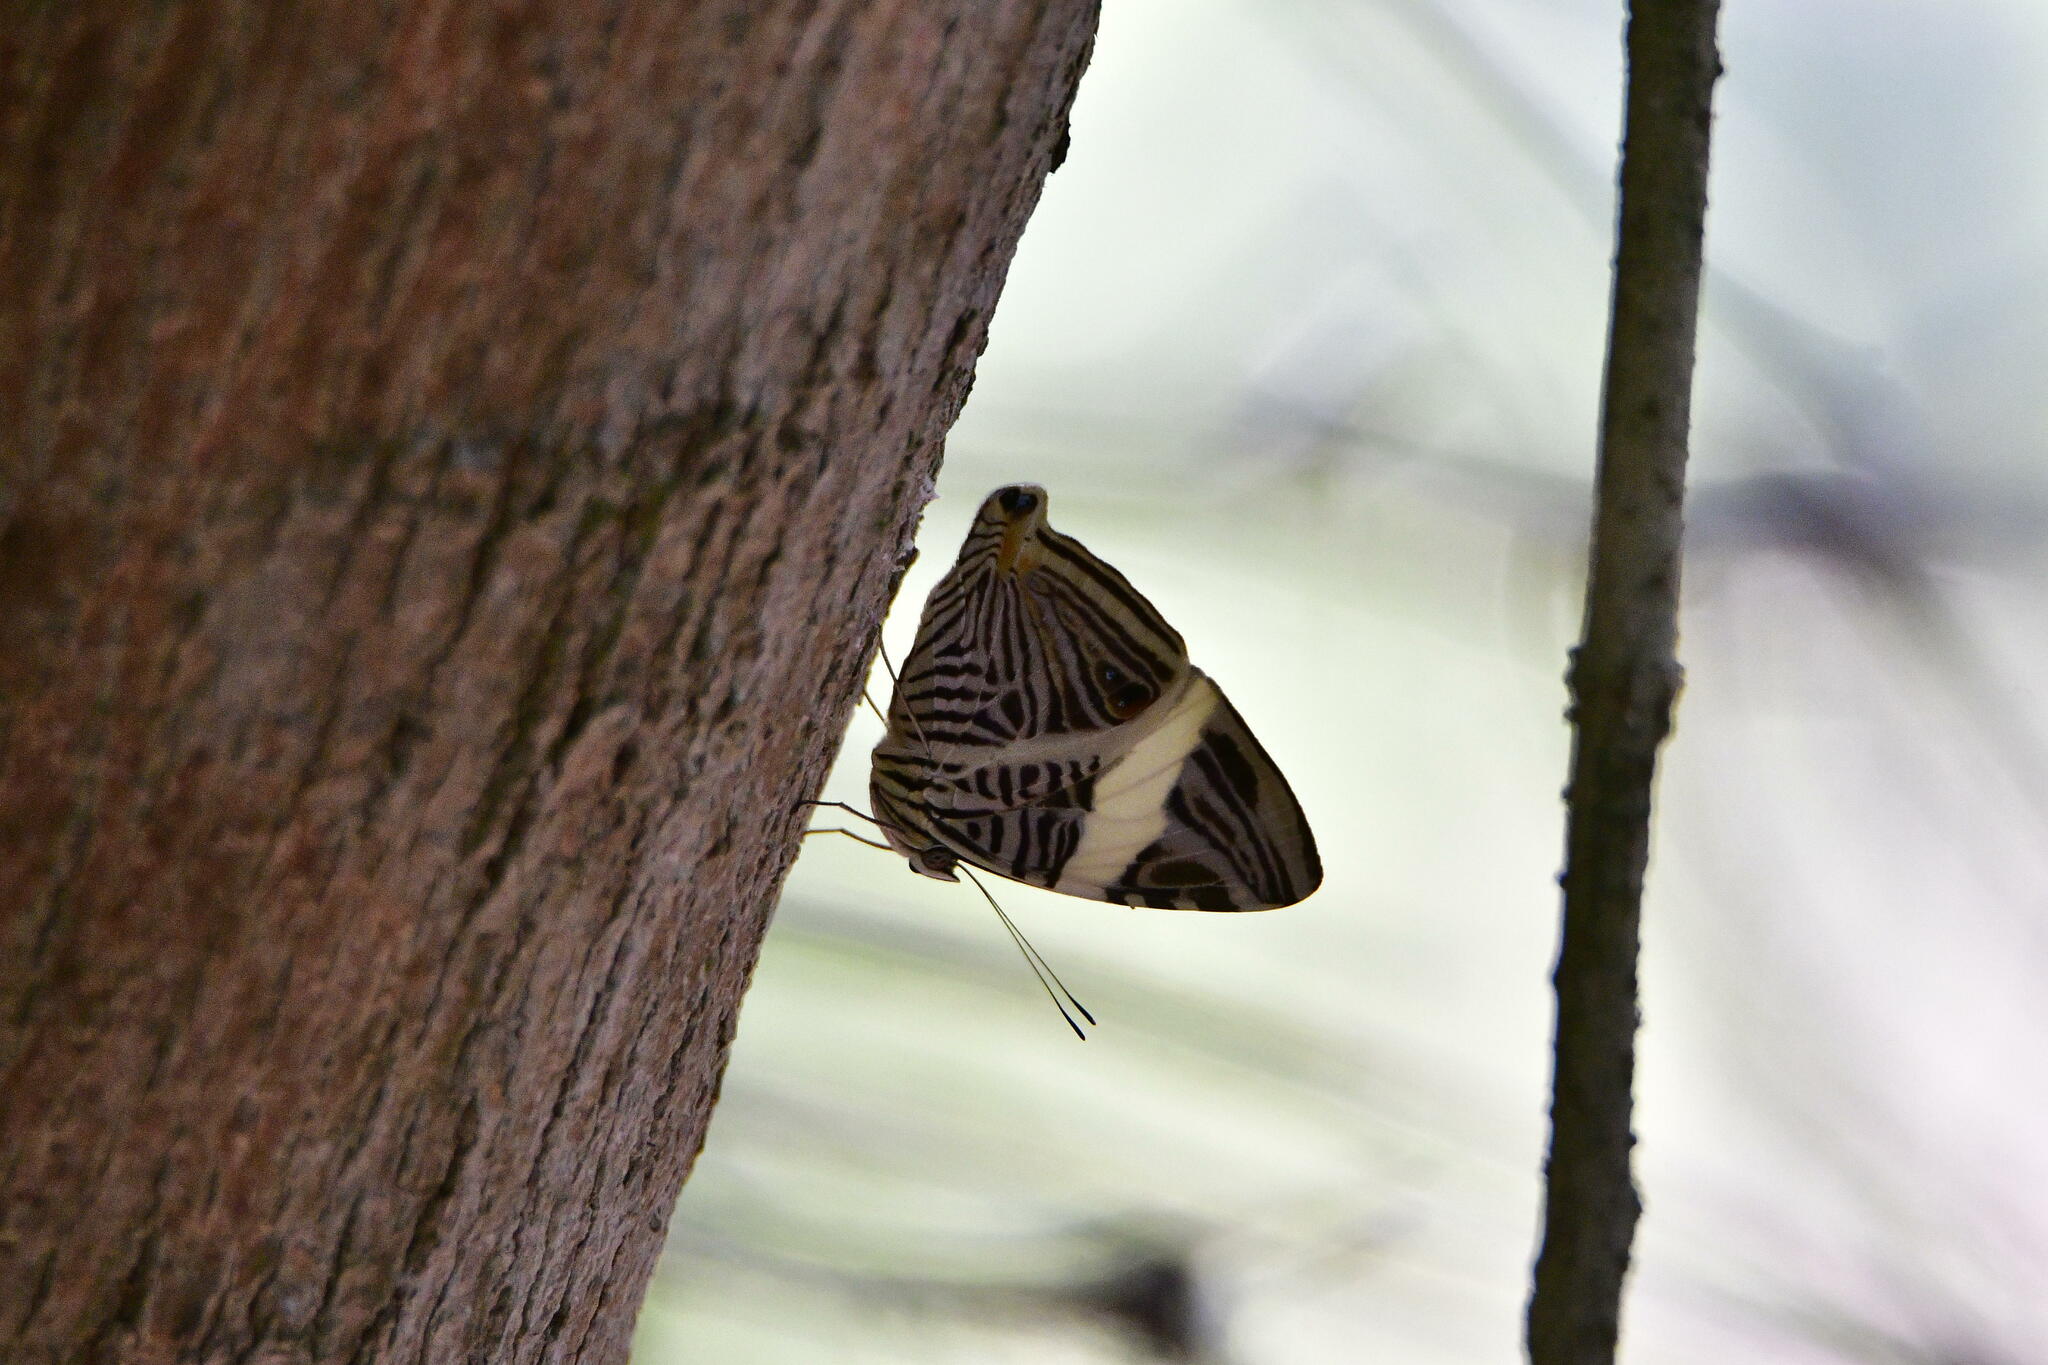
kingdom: Animalia
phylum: Arthropoda
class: Insecta
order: Lepidoptera
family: Nymphalidae
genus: Colobura
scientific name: Colobura dirce
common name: Dirce beauty
